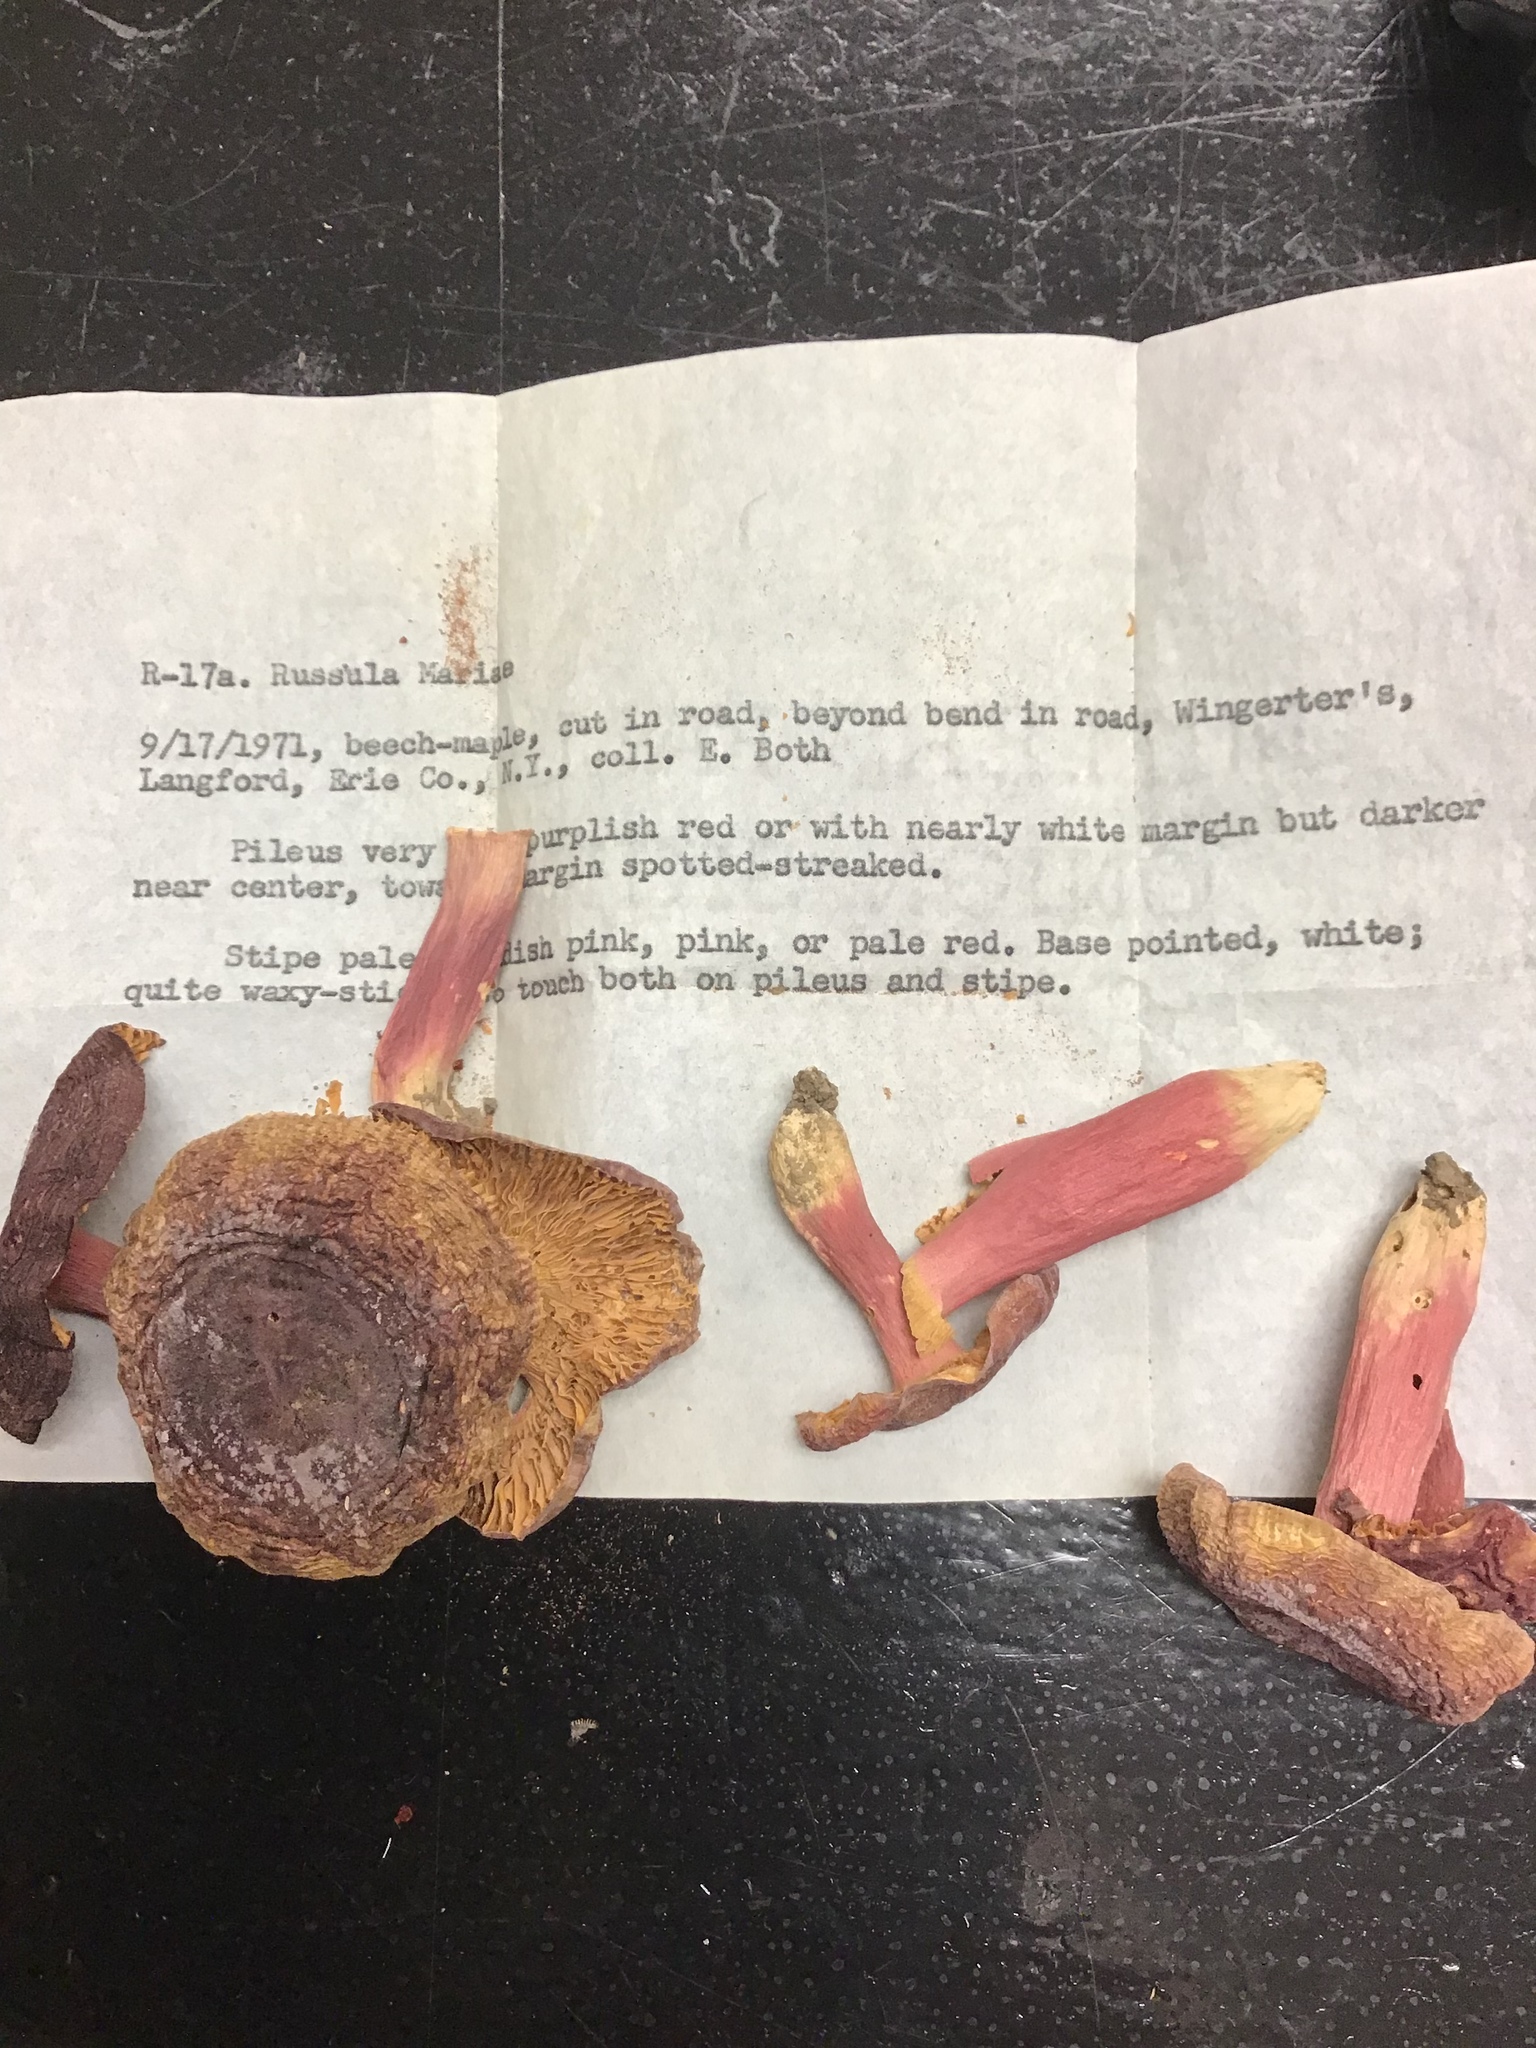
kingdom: Fungi
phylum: Basidiomycota
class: Agaricomycetes
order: Russulales
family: Russulaceae
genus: Russula
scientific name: Russula mariae
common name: Purple-bloom russula
